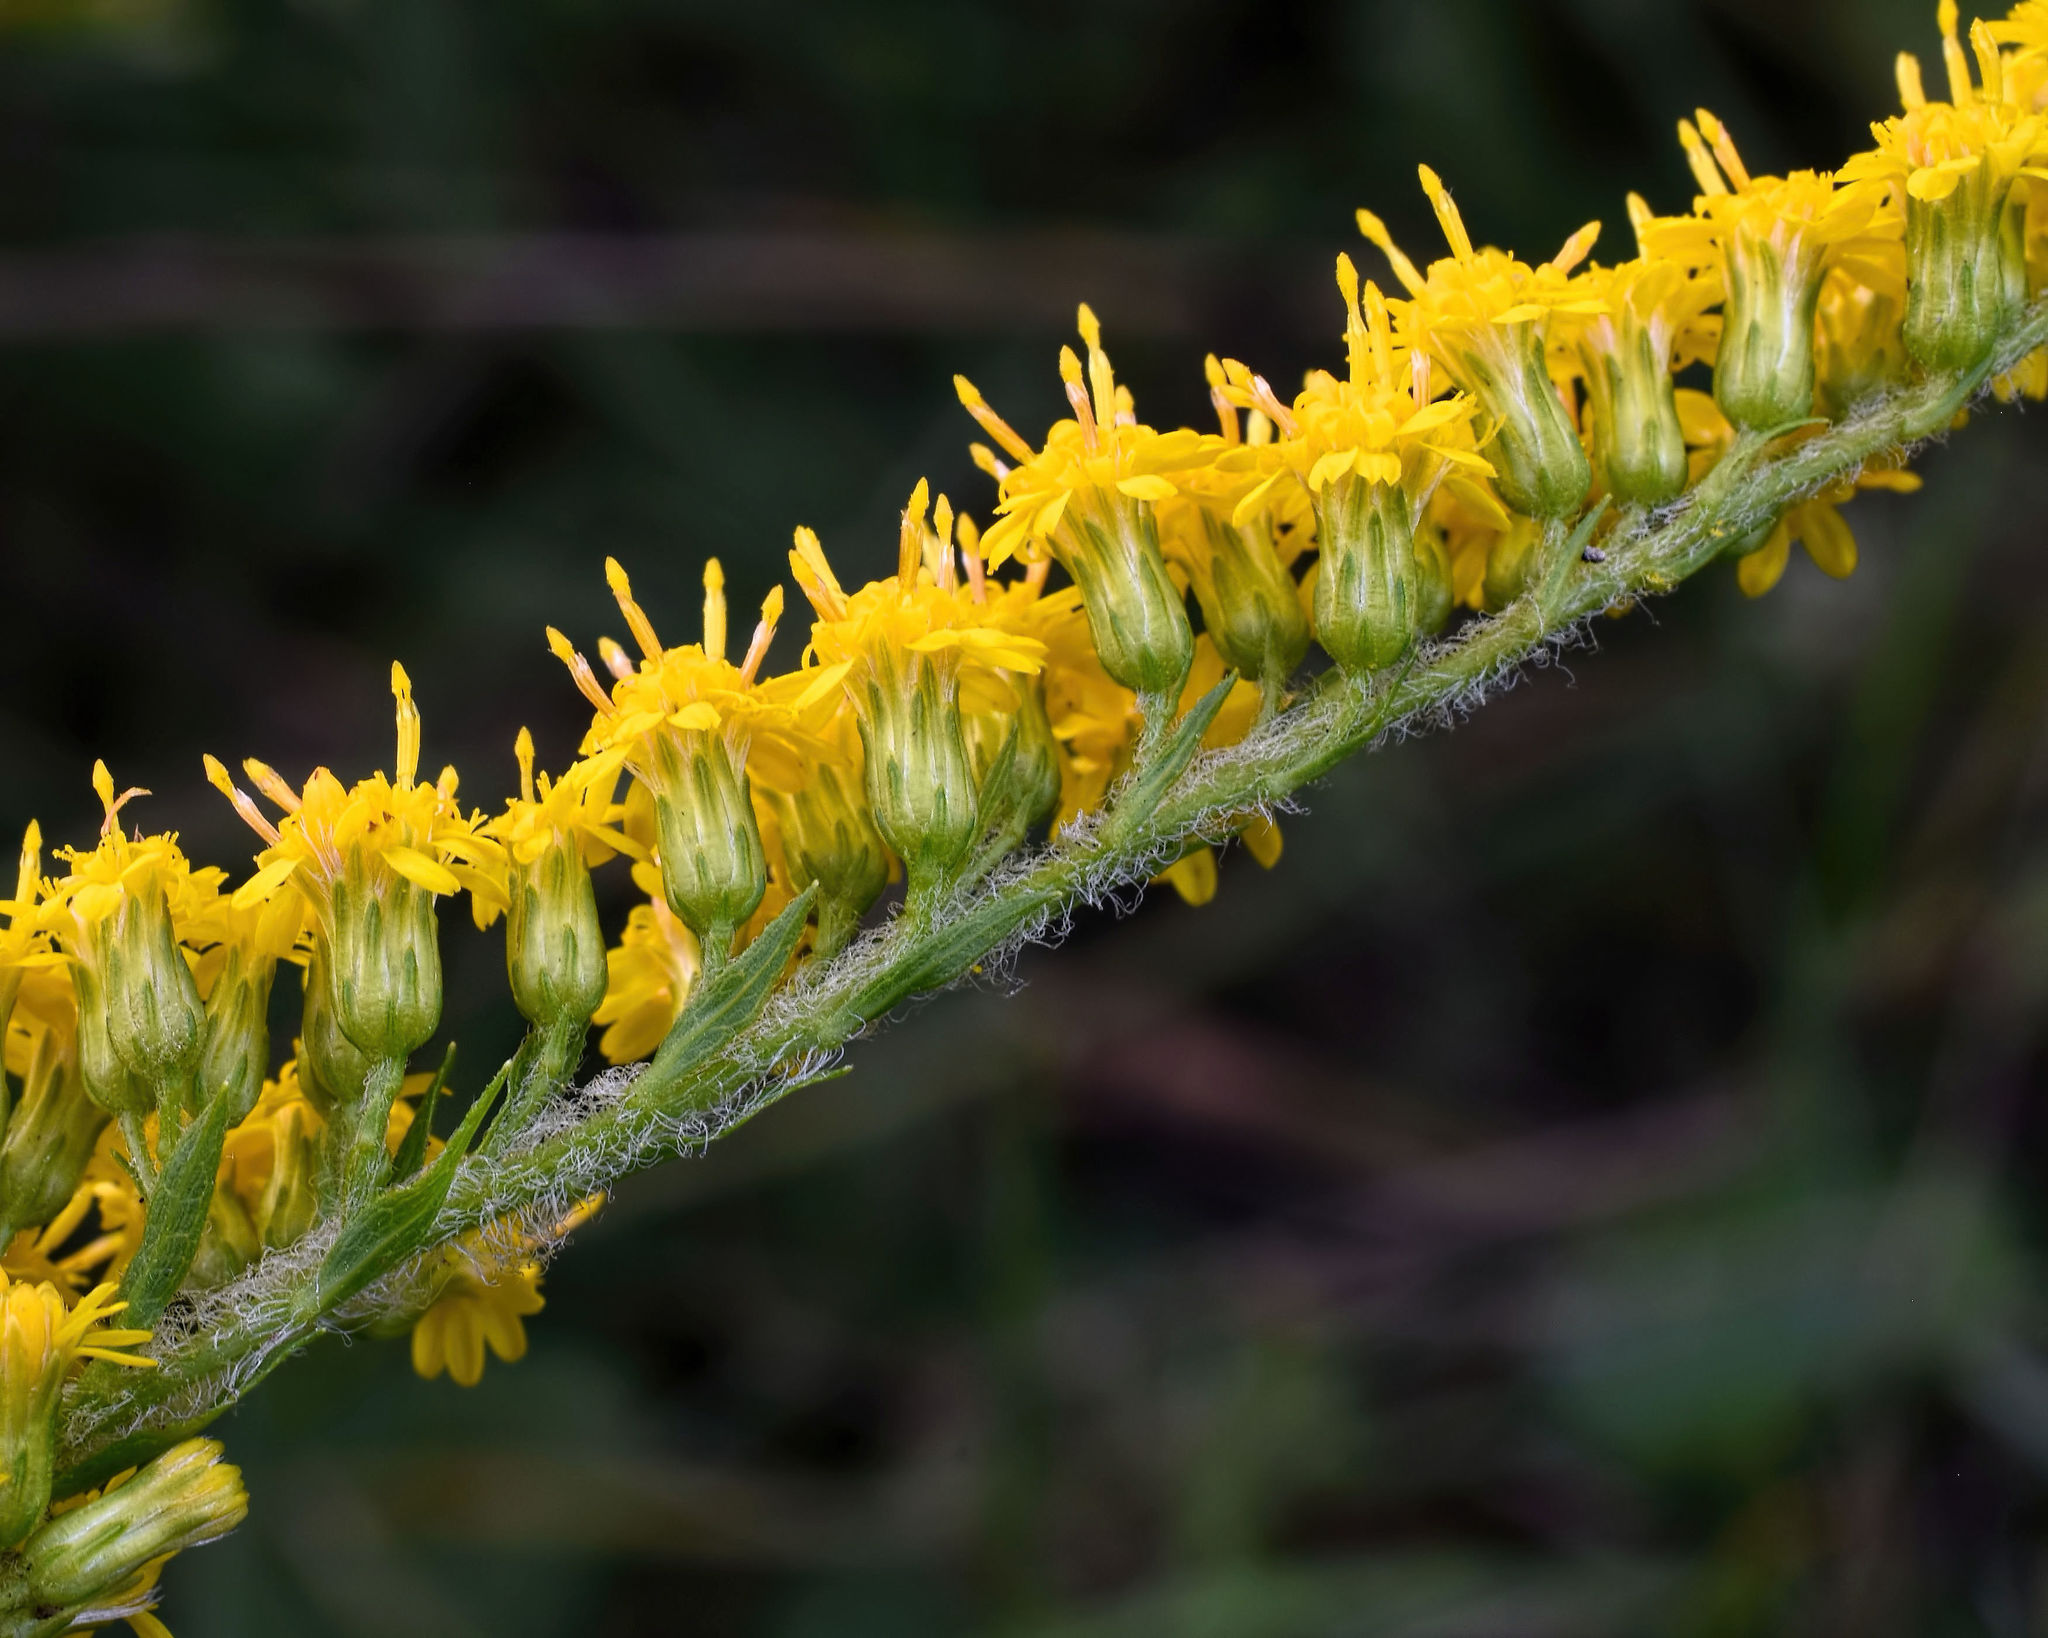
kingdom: Plantae
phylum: Tracheophyta
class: Magnoliopsida
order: Asterales
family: Asteraceae
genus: Solidago
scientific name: Solidago rugosa
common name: Rough-stemmed goldenrod
